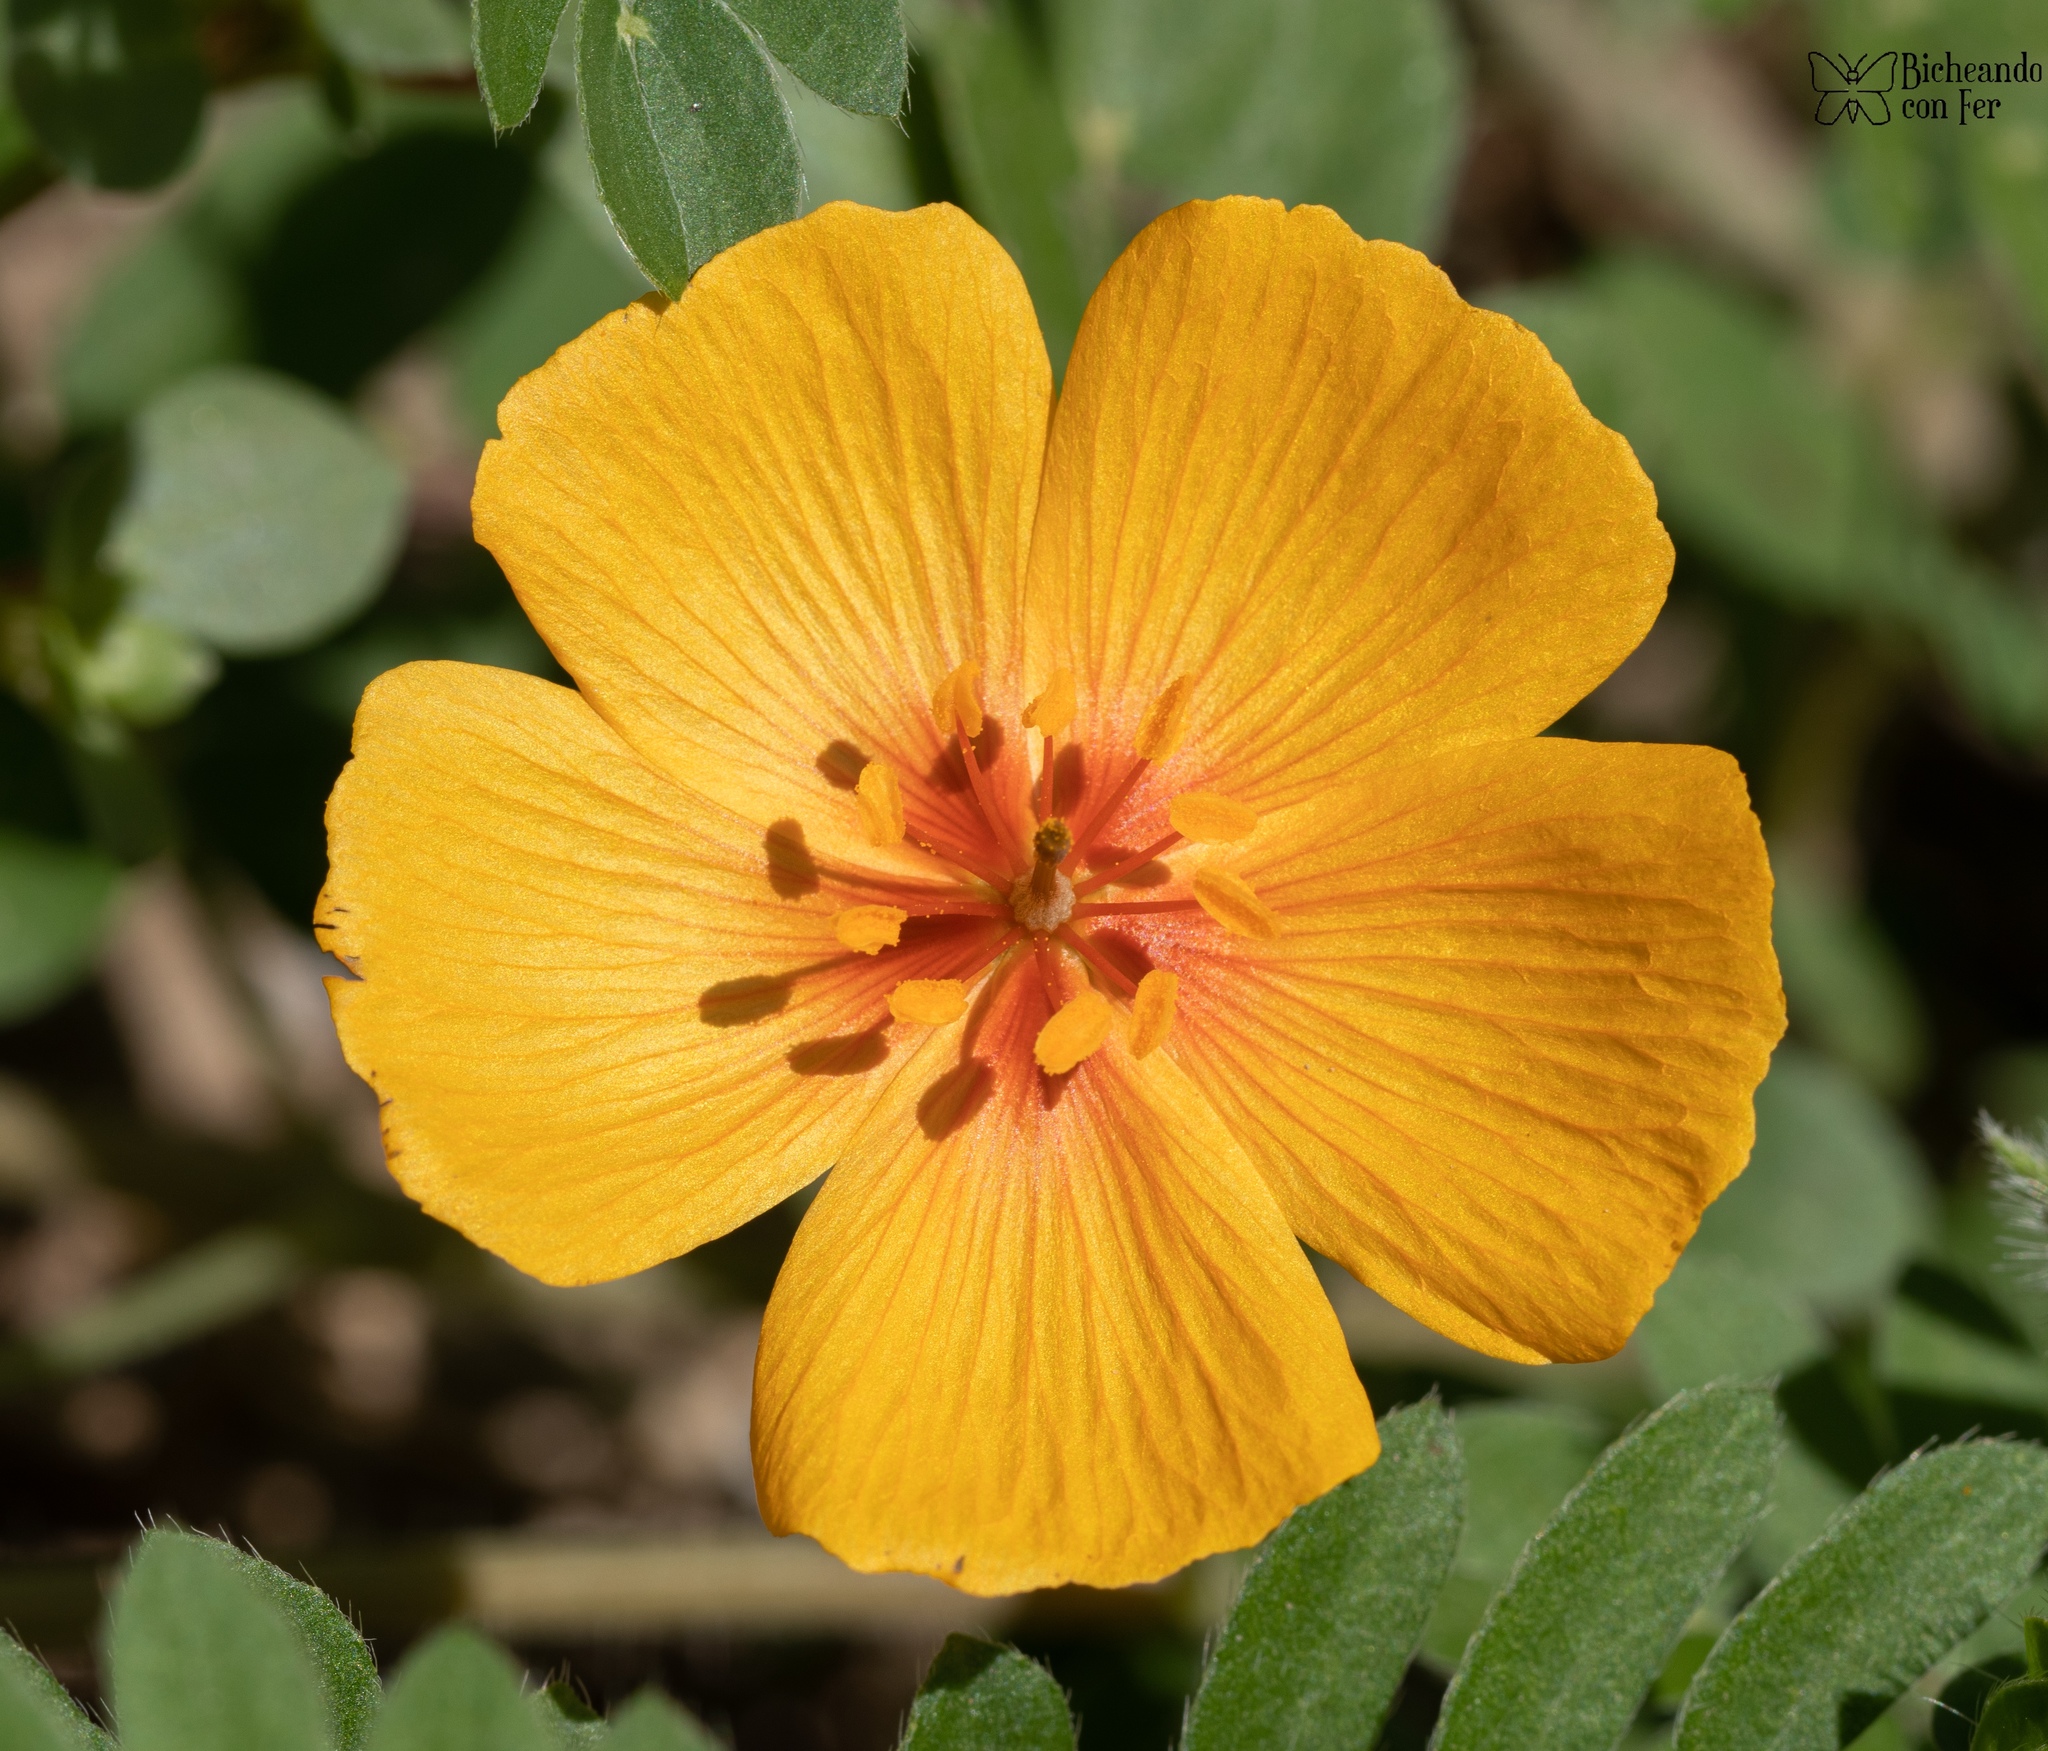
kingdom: Plantae
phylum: Tracheophyta
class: Magnoliopsida
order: Zygophyllales
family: Zygophyllaceae
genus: Kallstroemia
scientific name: Kallstroemia grandiflora
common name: Arizona-poppy
